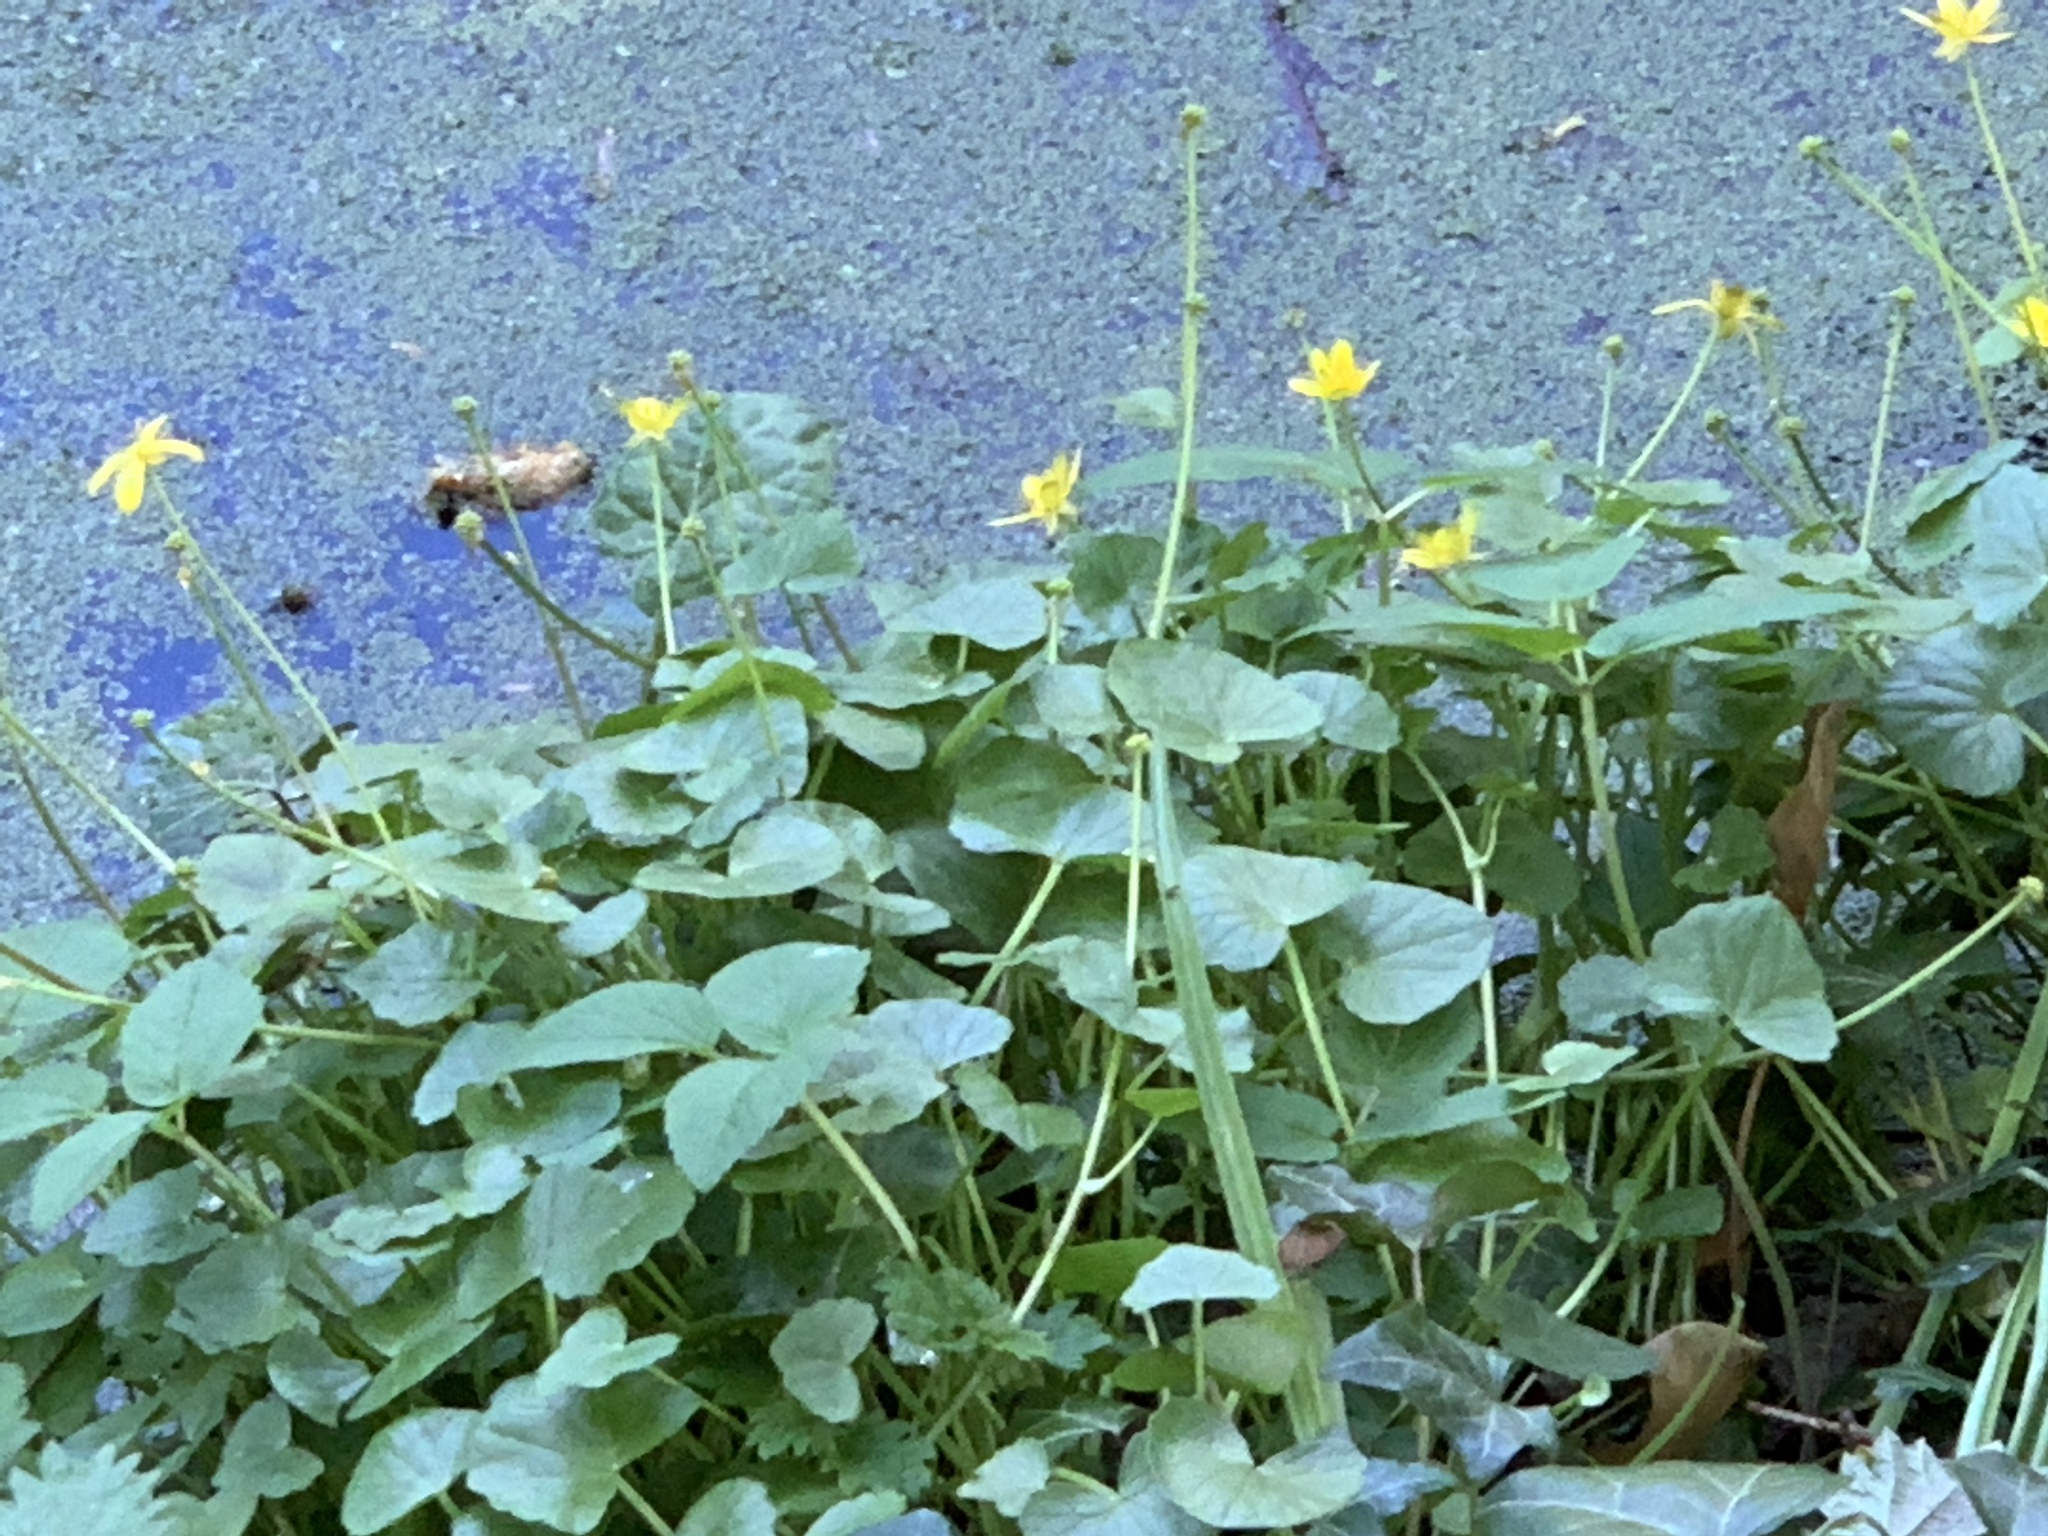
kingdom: Plantae
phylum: Tracheophyta
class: Magnoliopsida
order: Ranunculales
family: Ranunculaceae
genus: Ficaria
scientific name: Ficaria verna
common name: Lesser celandine
